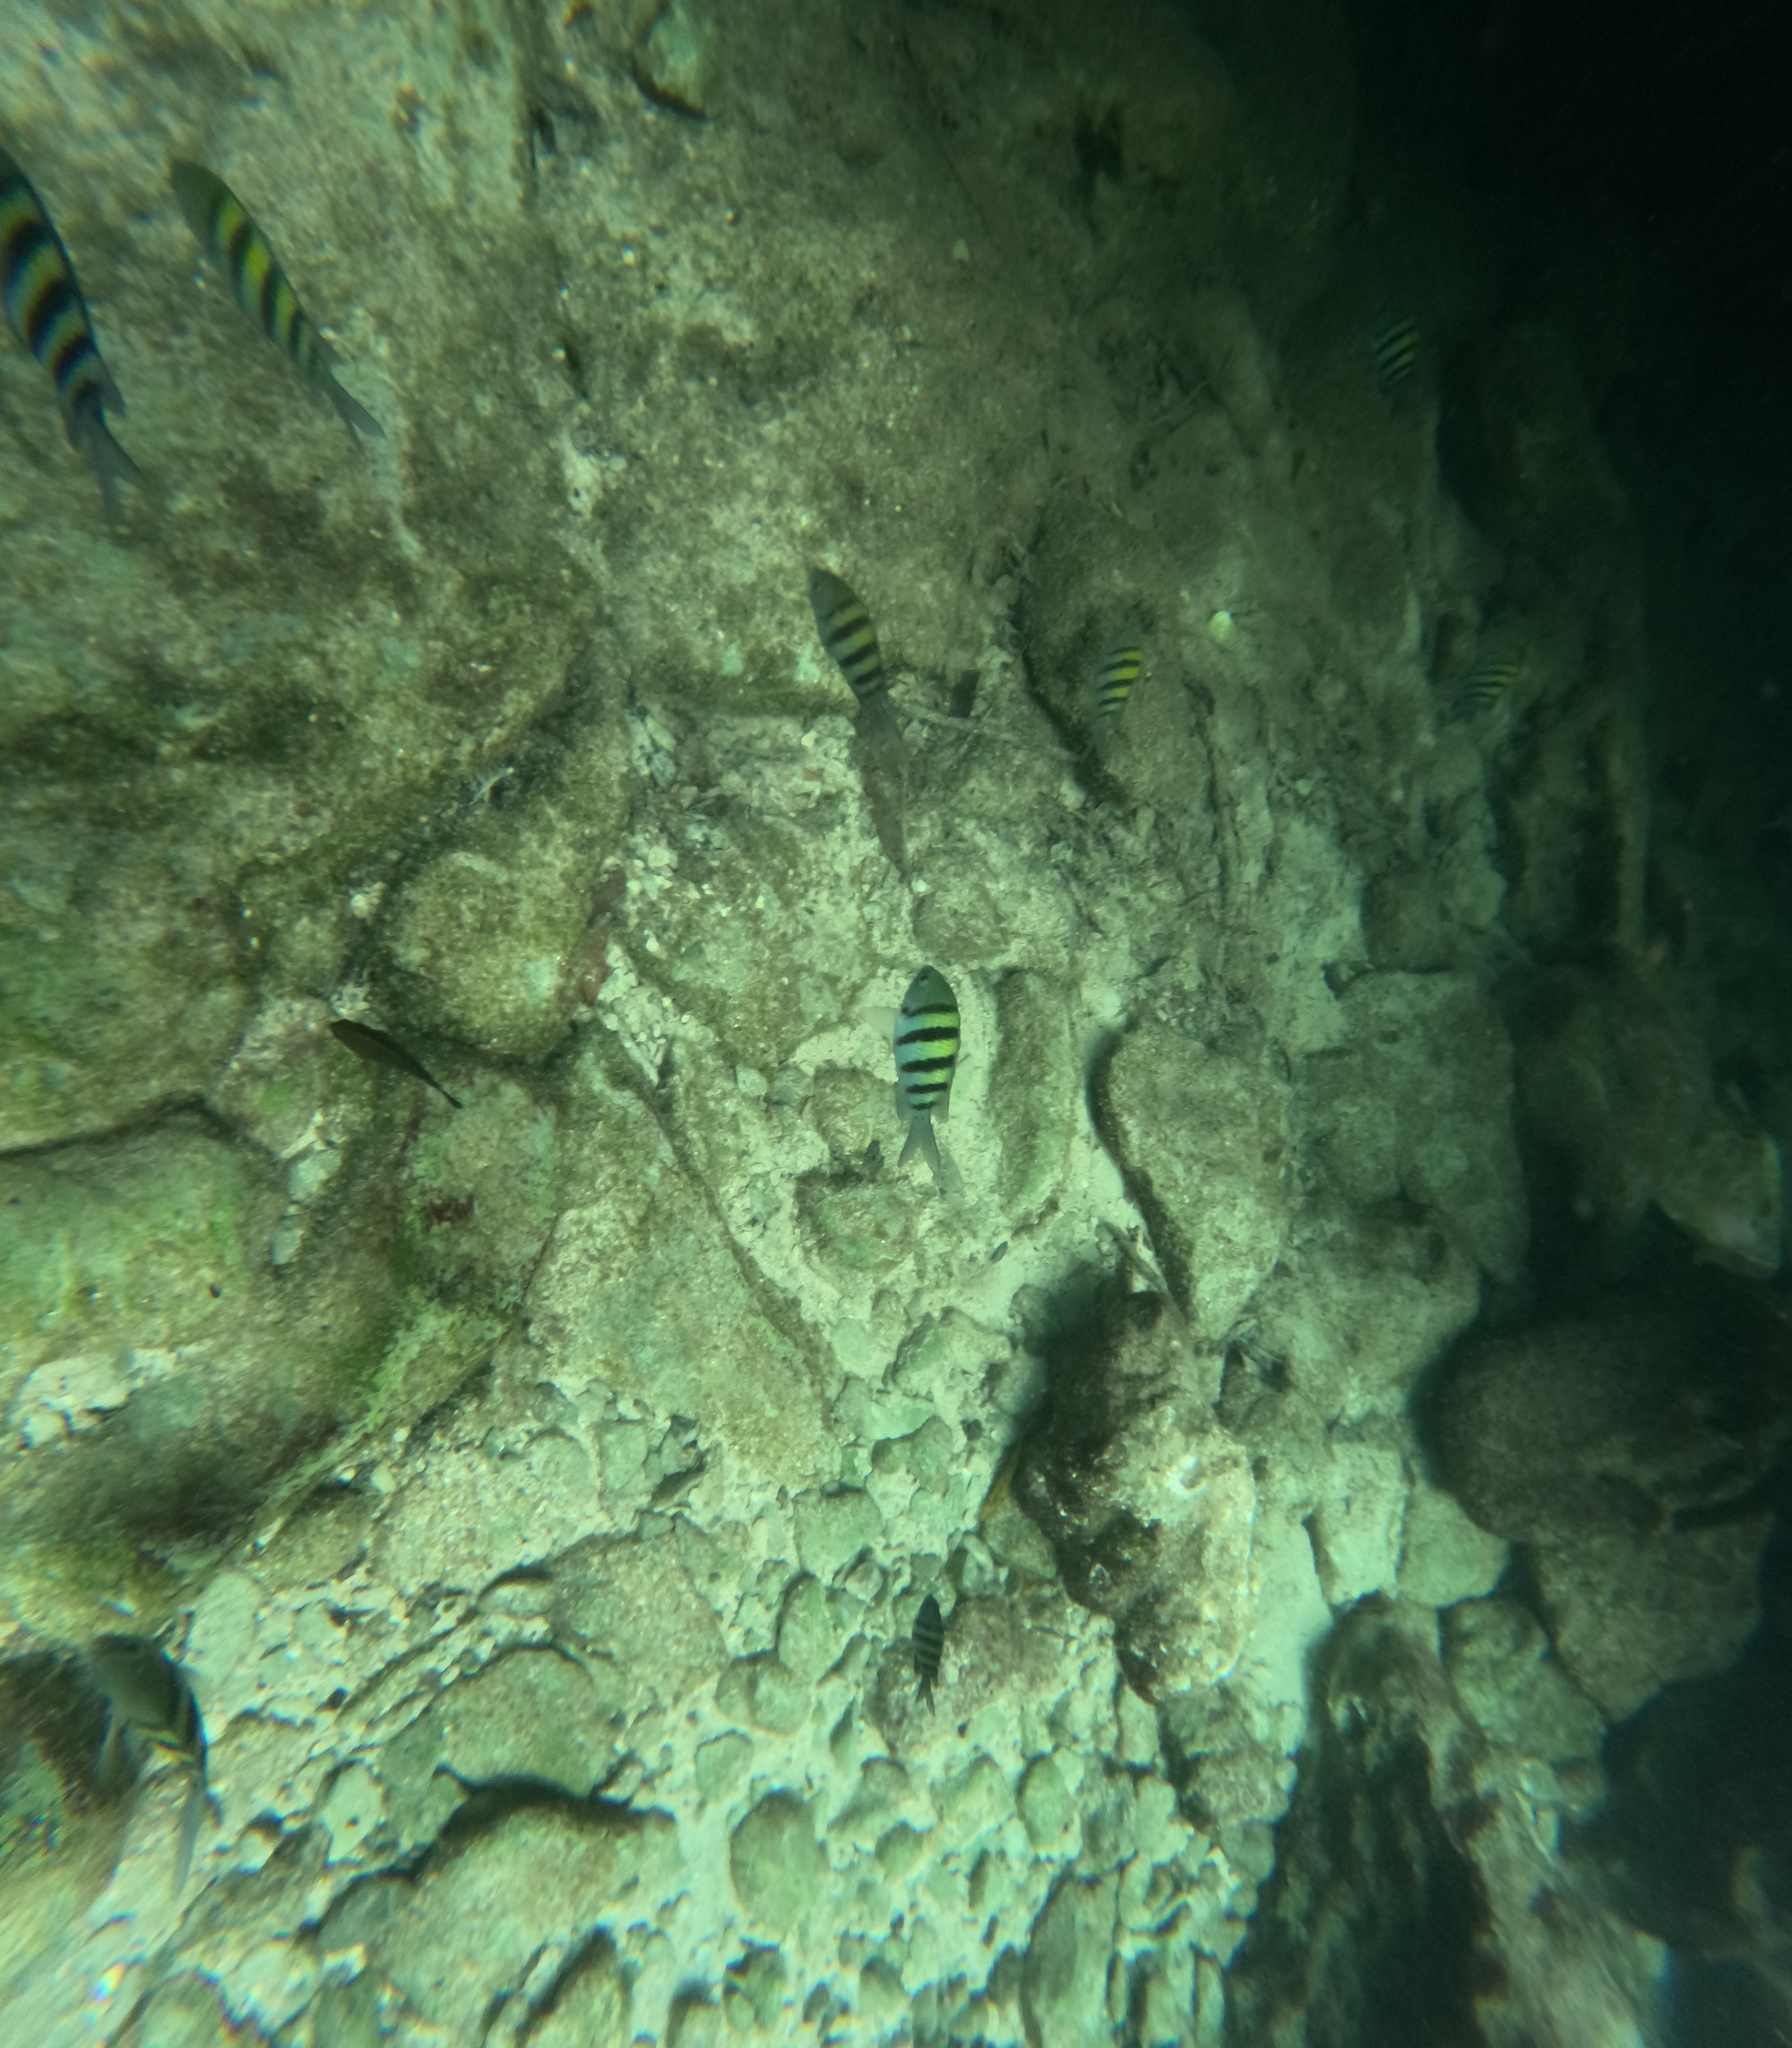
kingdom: Animalia
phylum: Chordata
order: Perciformes
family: Pomacentridae
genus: Abudefduf
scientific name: Abudefduf saxatilis
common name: Sergeant major
